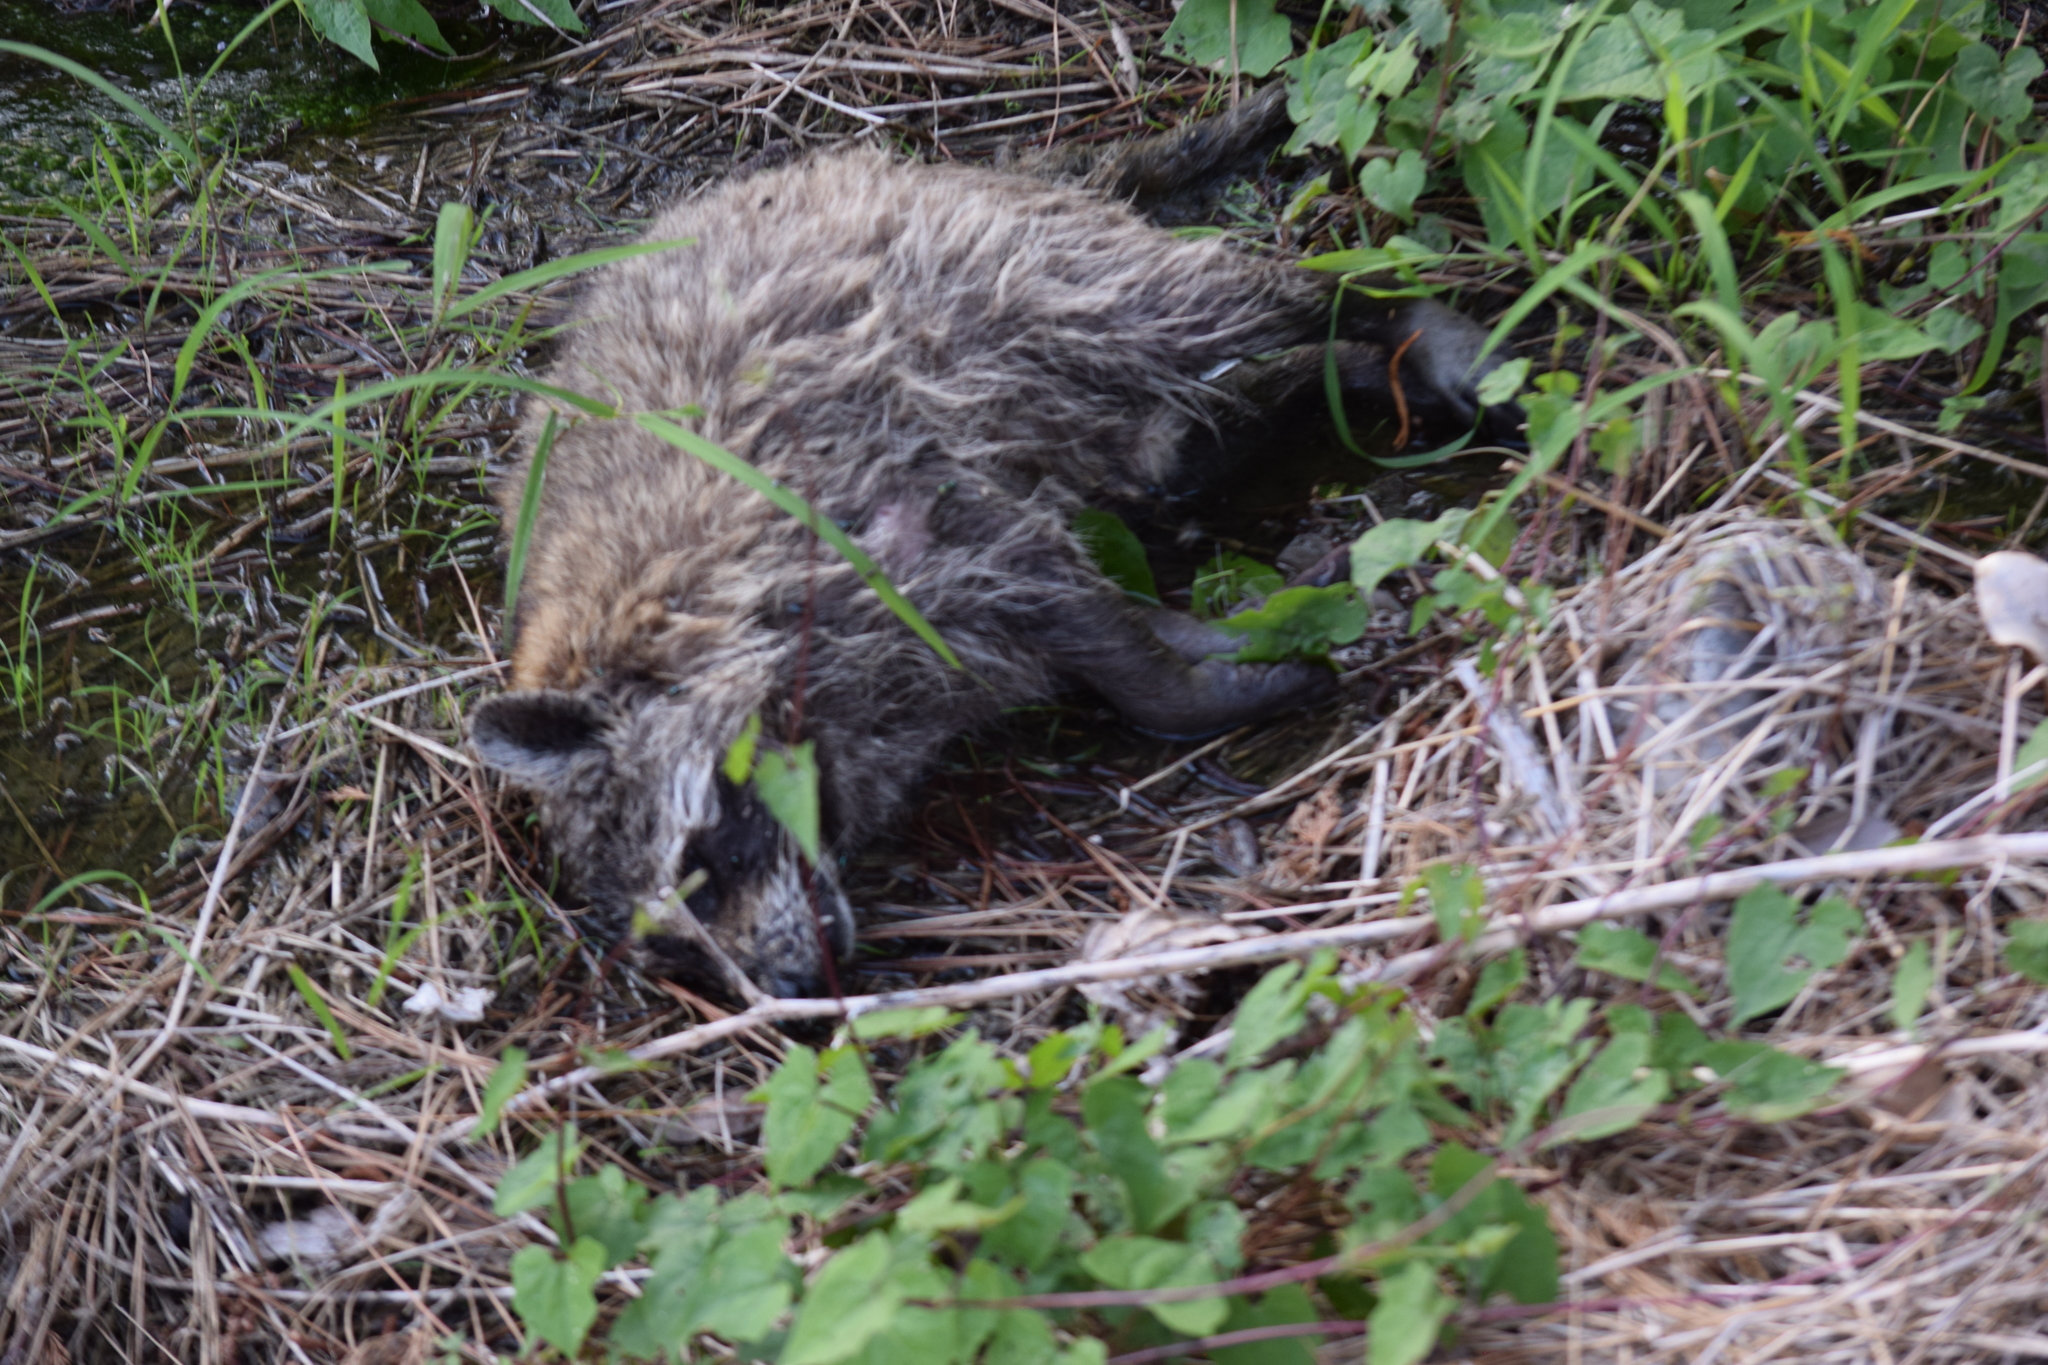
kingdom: Animalia
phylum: Chordata
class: Mammalia
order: Carnivora
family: Procyonidae
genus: Procyon
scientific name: Procyon lotor
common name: Raccoon
